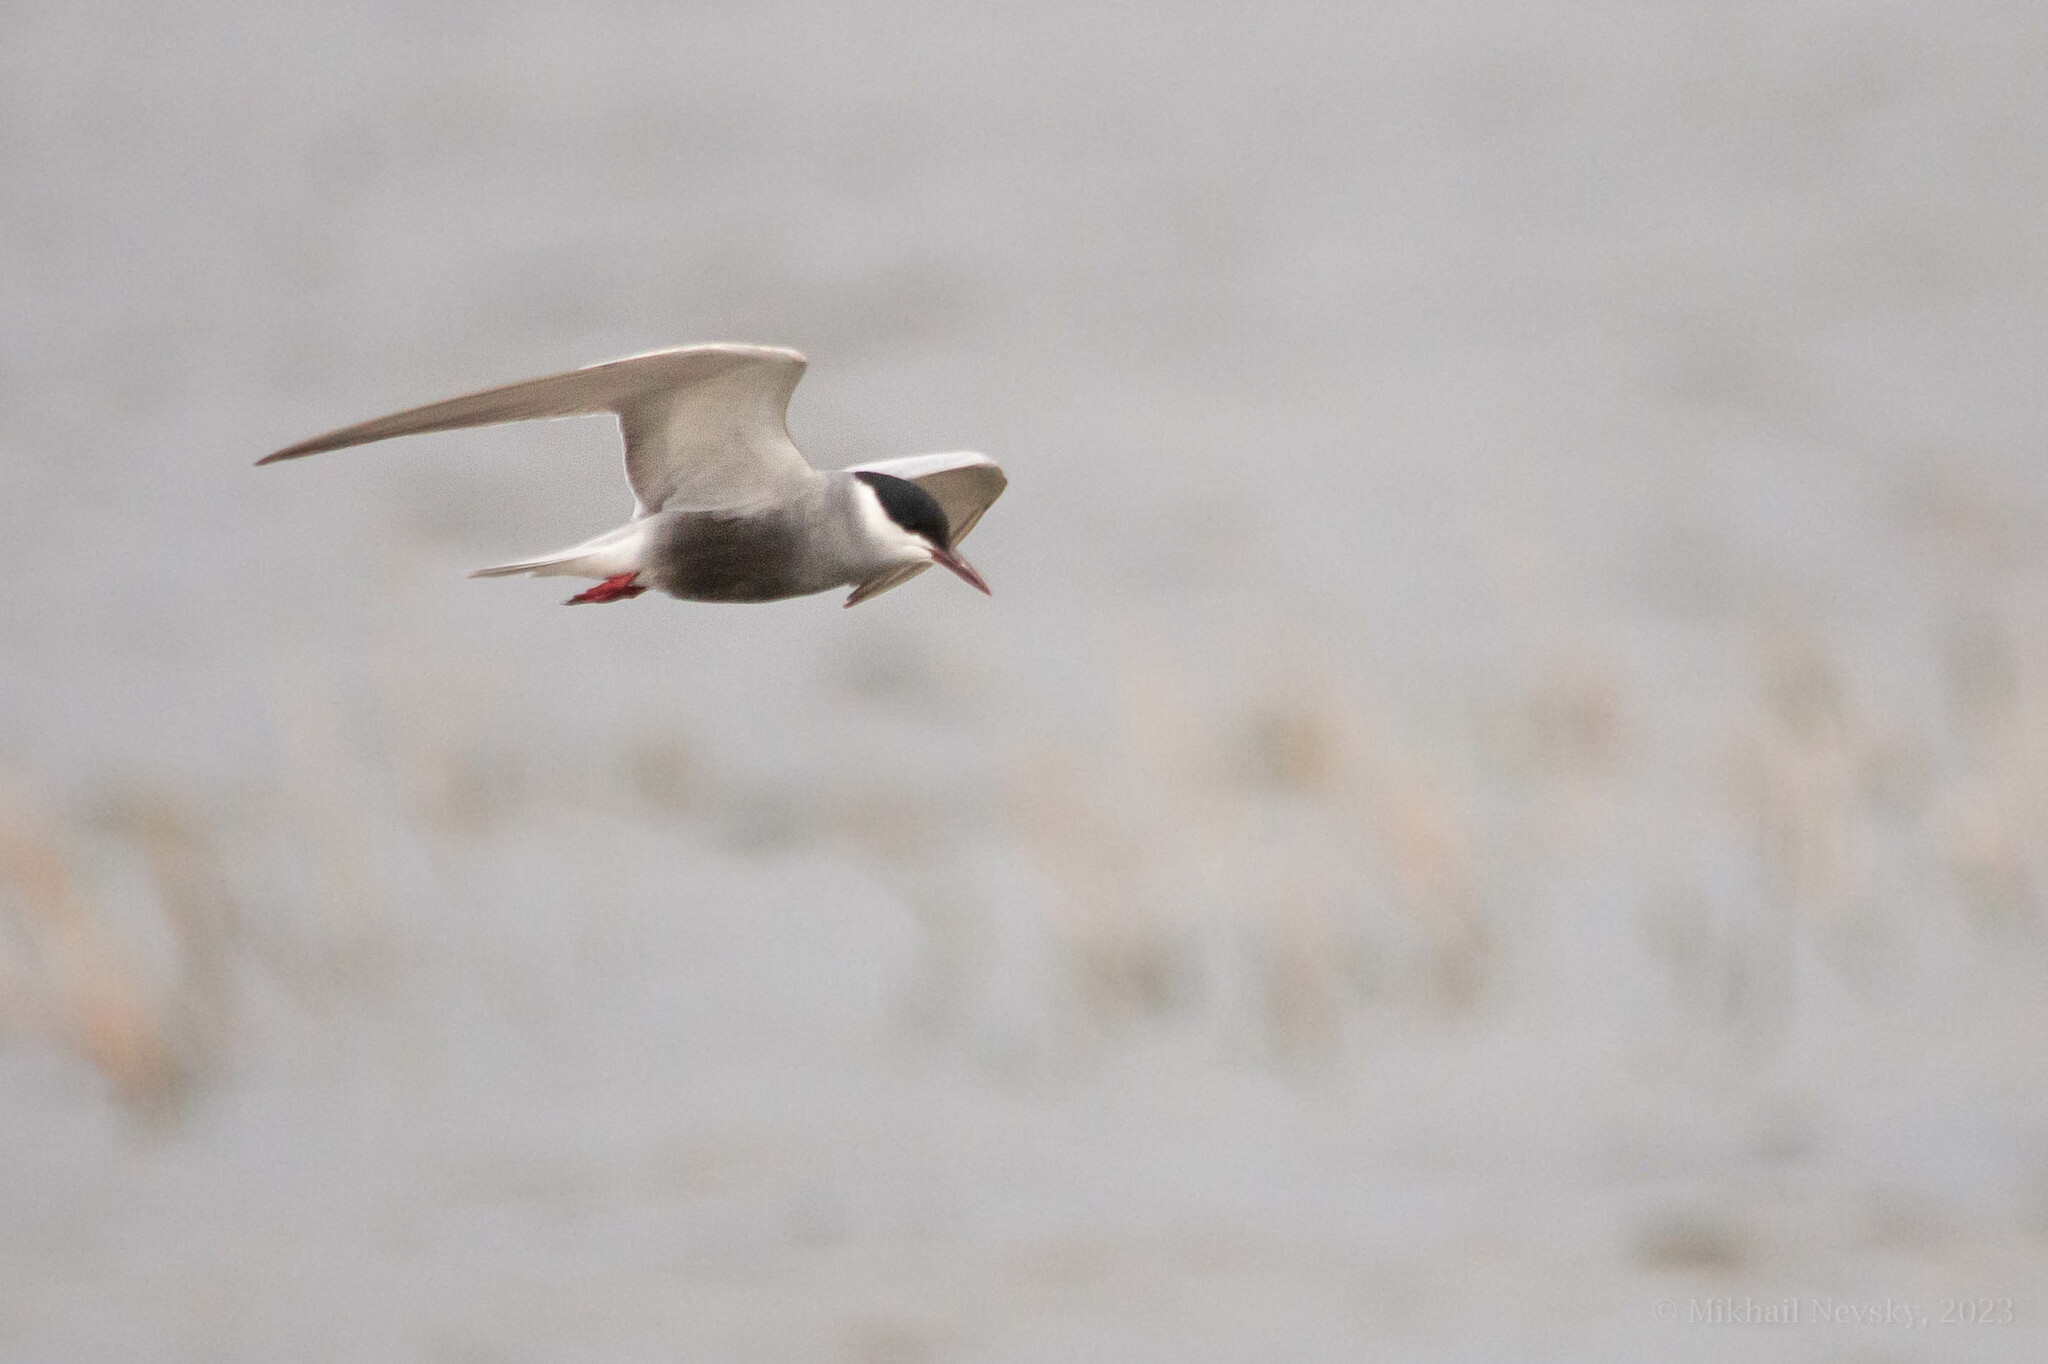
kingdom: Animalia
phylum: Chordata
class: Aves
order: Charadriiformes
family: Laridae
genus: Chlidonias
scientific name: Chlidonias hybrida
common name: Whiskered tern
